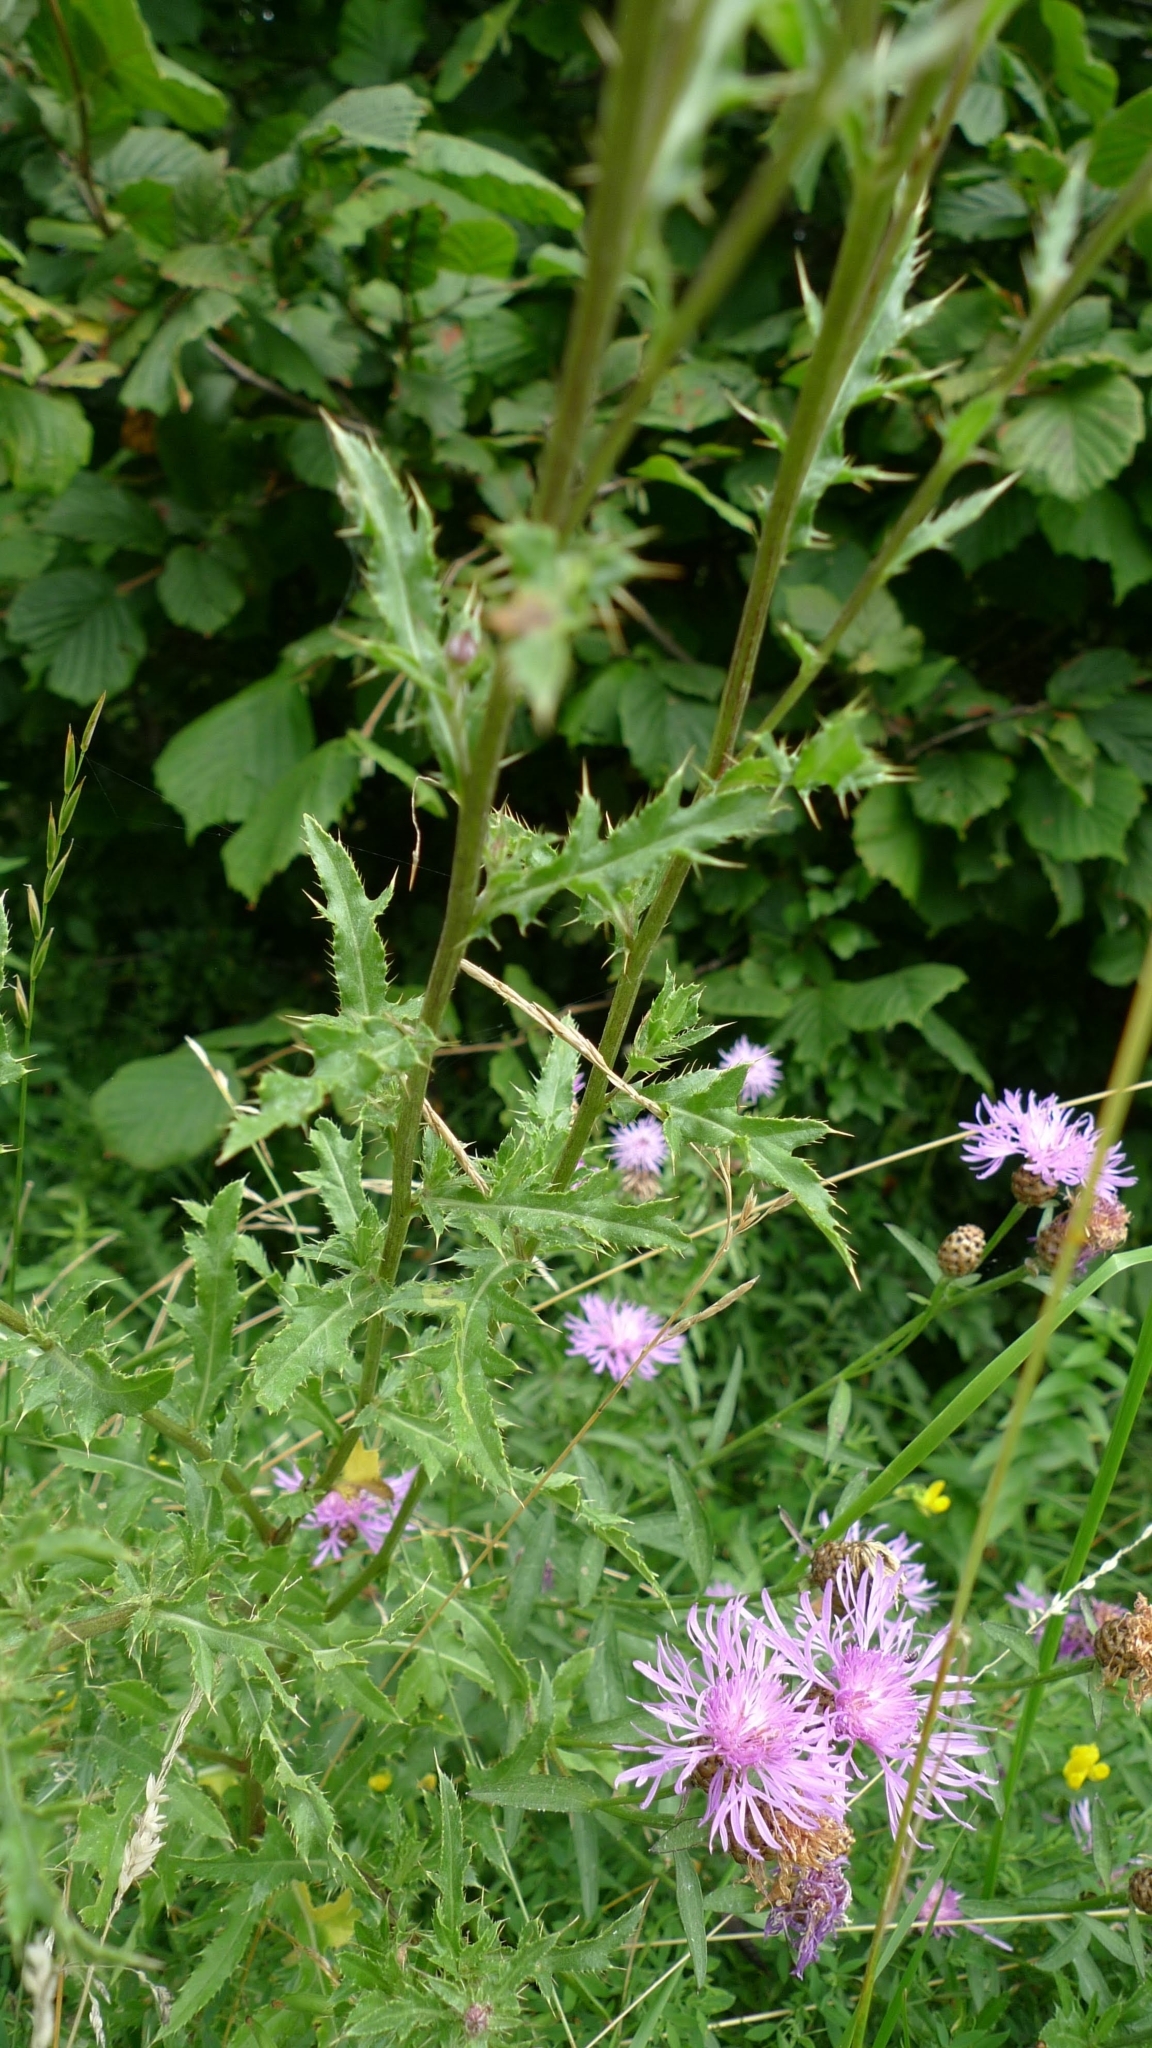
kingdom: Plantae
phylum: Tracheophyta
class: Magnoliopsida
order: Asterales
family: Asteraceae
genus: Cirsium
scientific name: Cirsium arvense
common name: Creeping thistle
